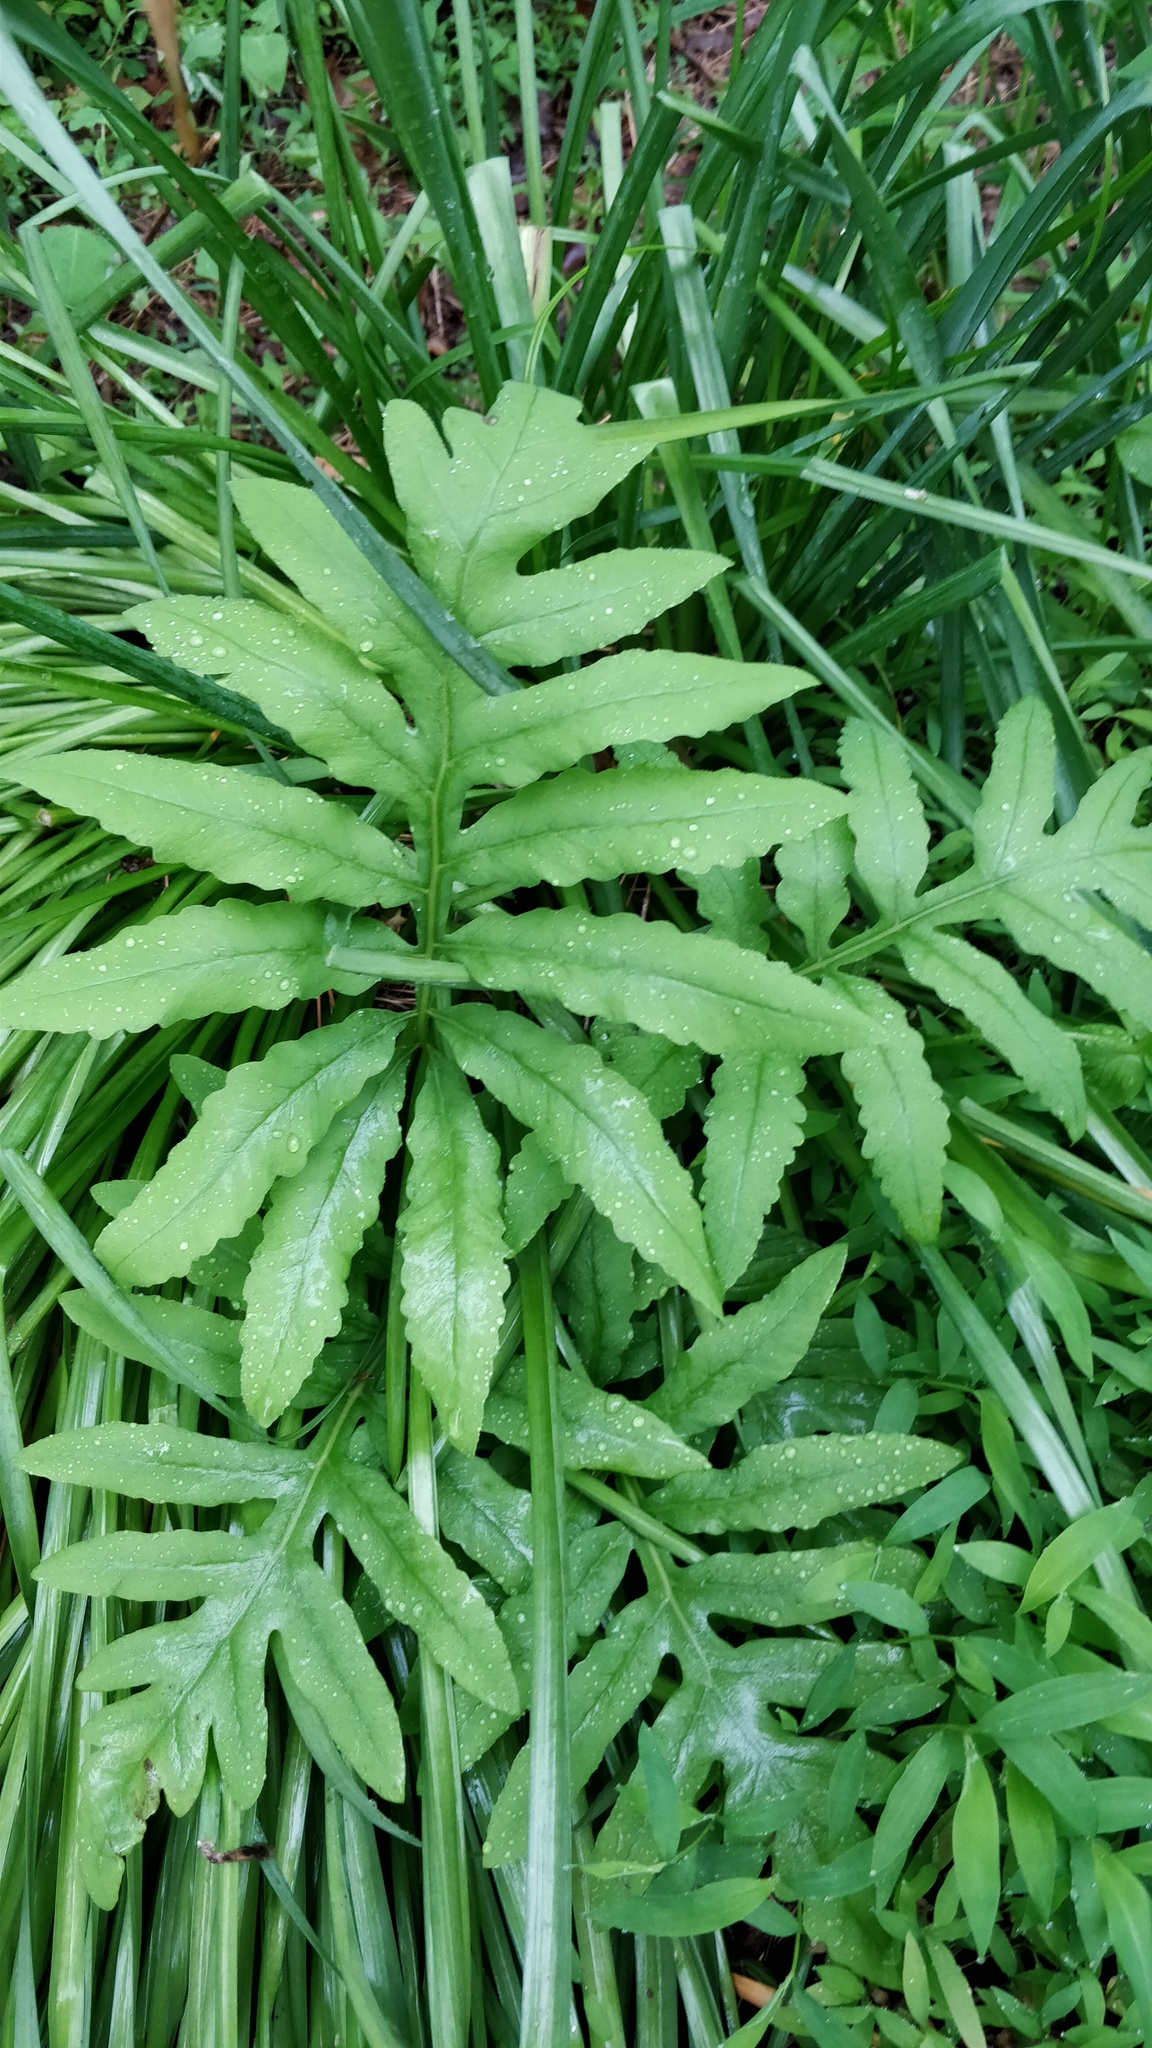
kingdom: Plantae
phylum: Tracheophyta
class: Polypodiopsida
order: Polypodiales
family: Onocleaceae
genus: Onoclea
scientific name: Onoclea sensibilis
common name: Sensitive fern
